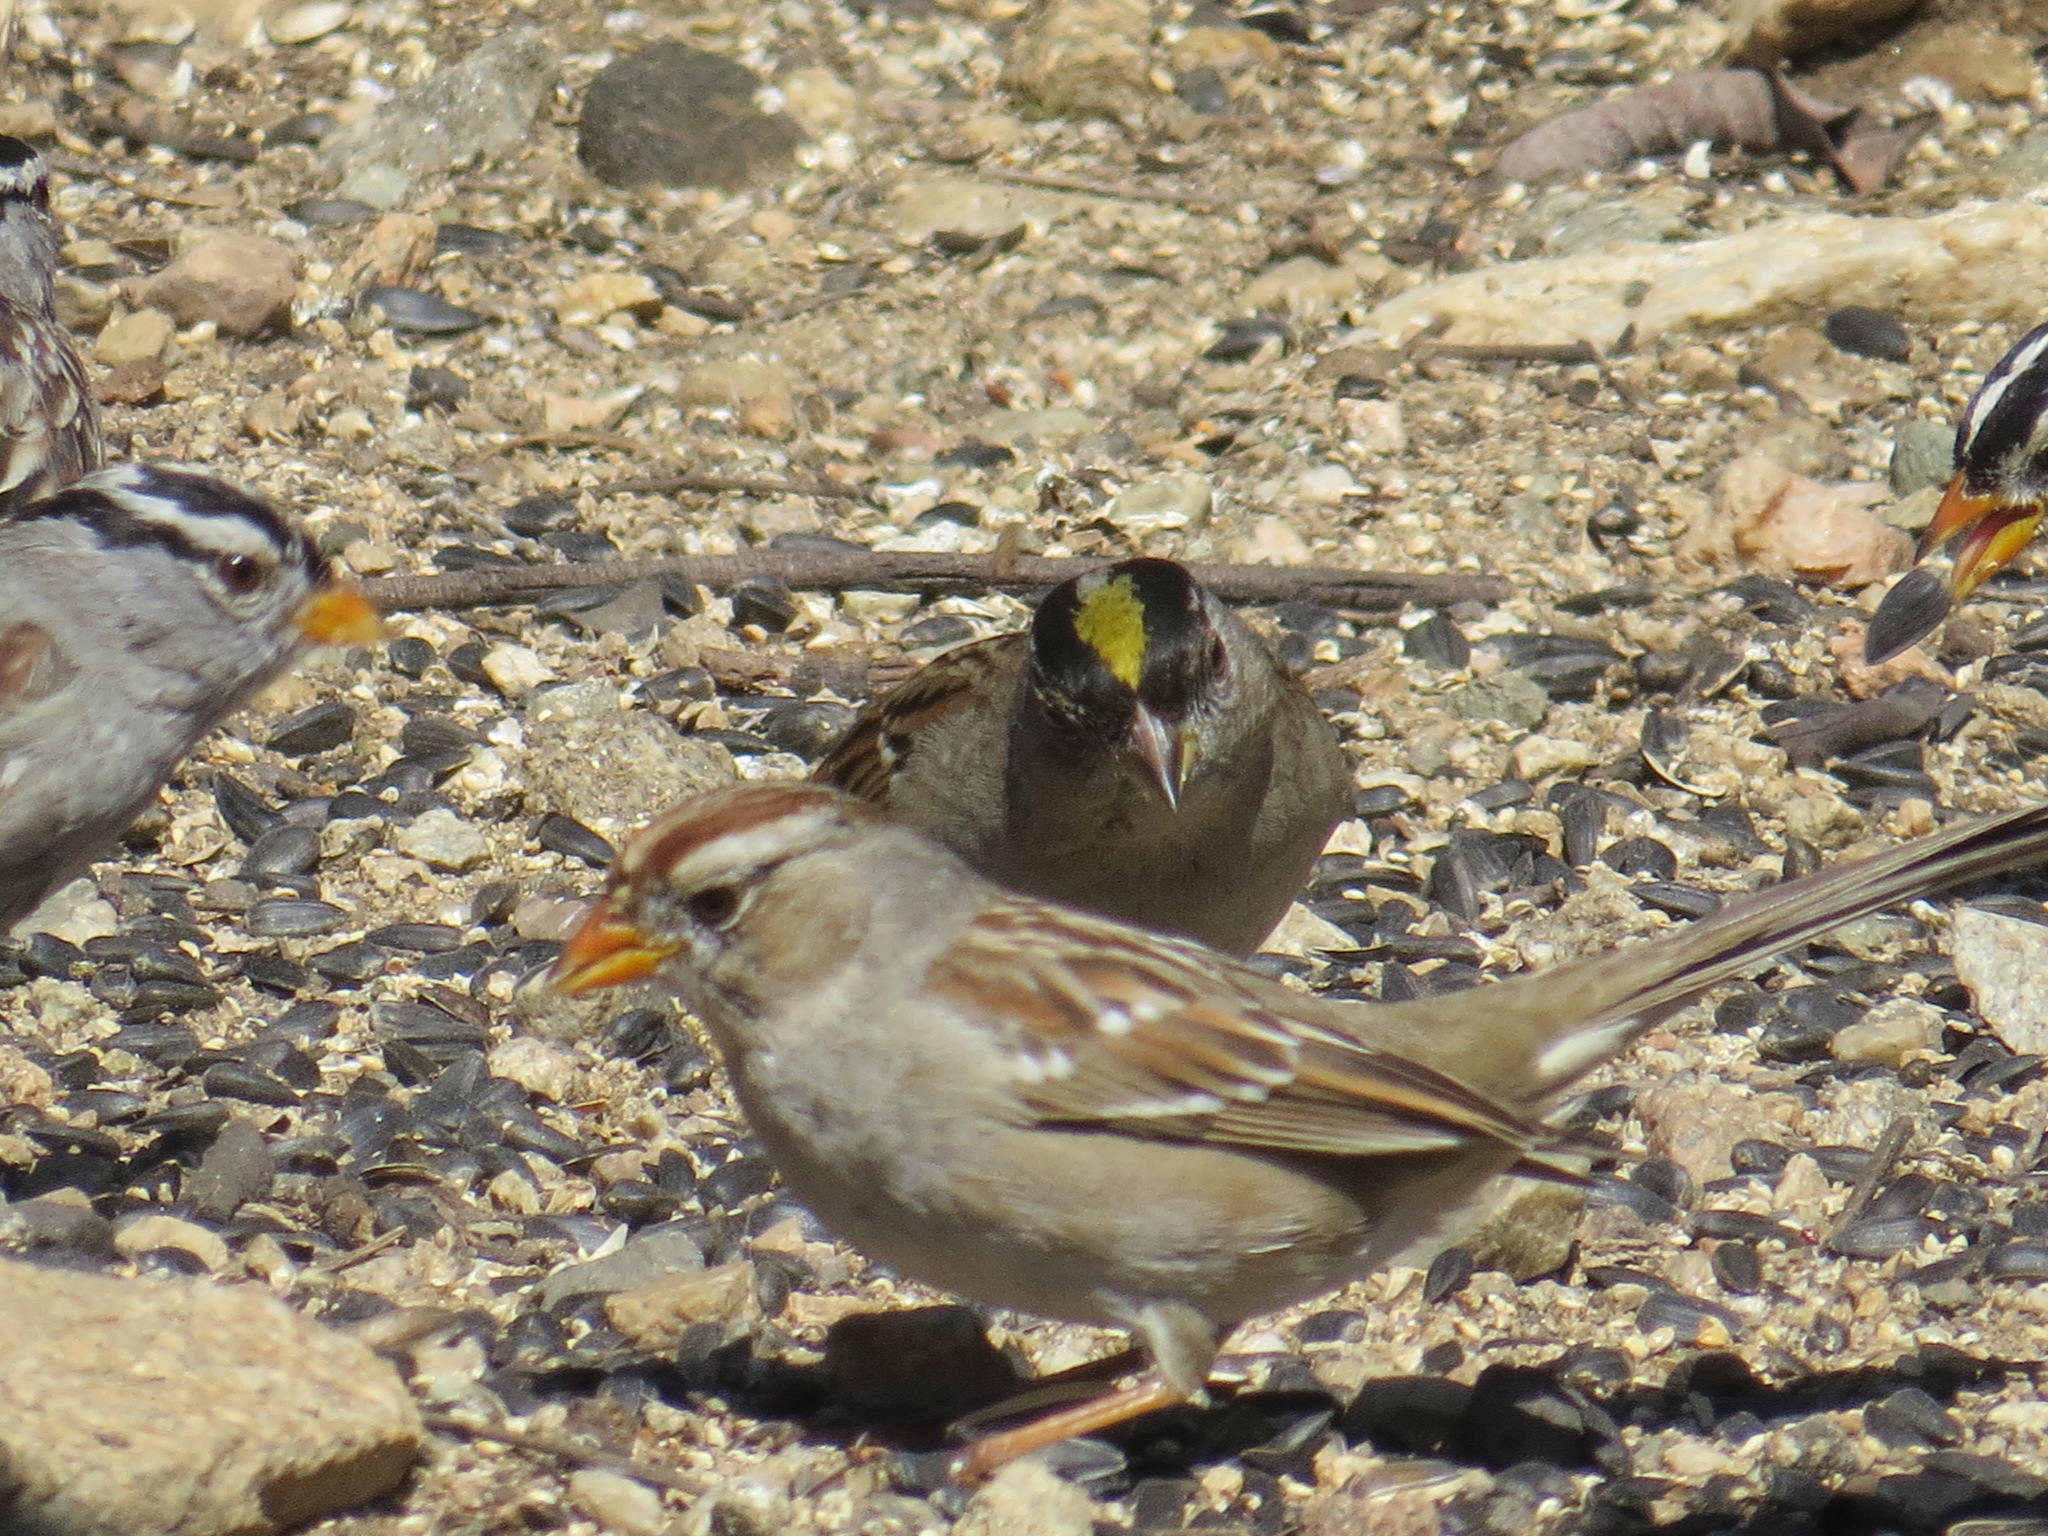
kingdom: Animalia
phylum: Chordata
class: Aves
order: Passeriformes
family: Passerellidae
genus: Zonotrichia
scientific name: Zonotrichia atricapilla
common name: Golden-crowned sparrow
